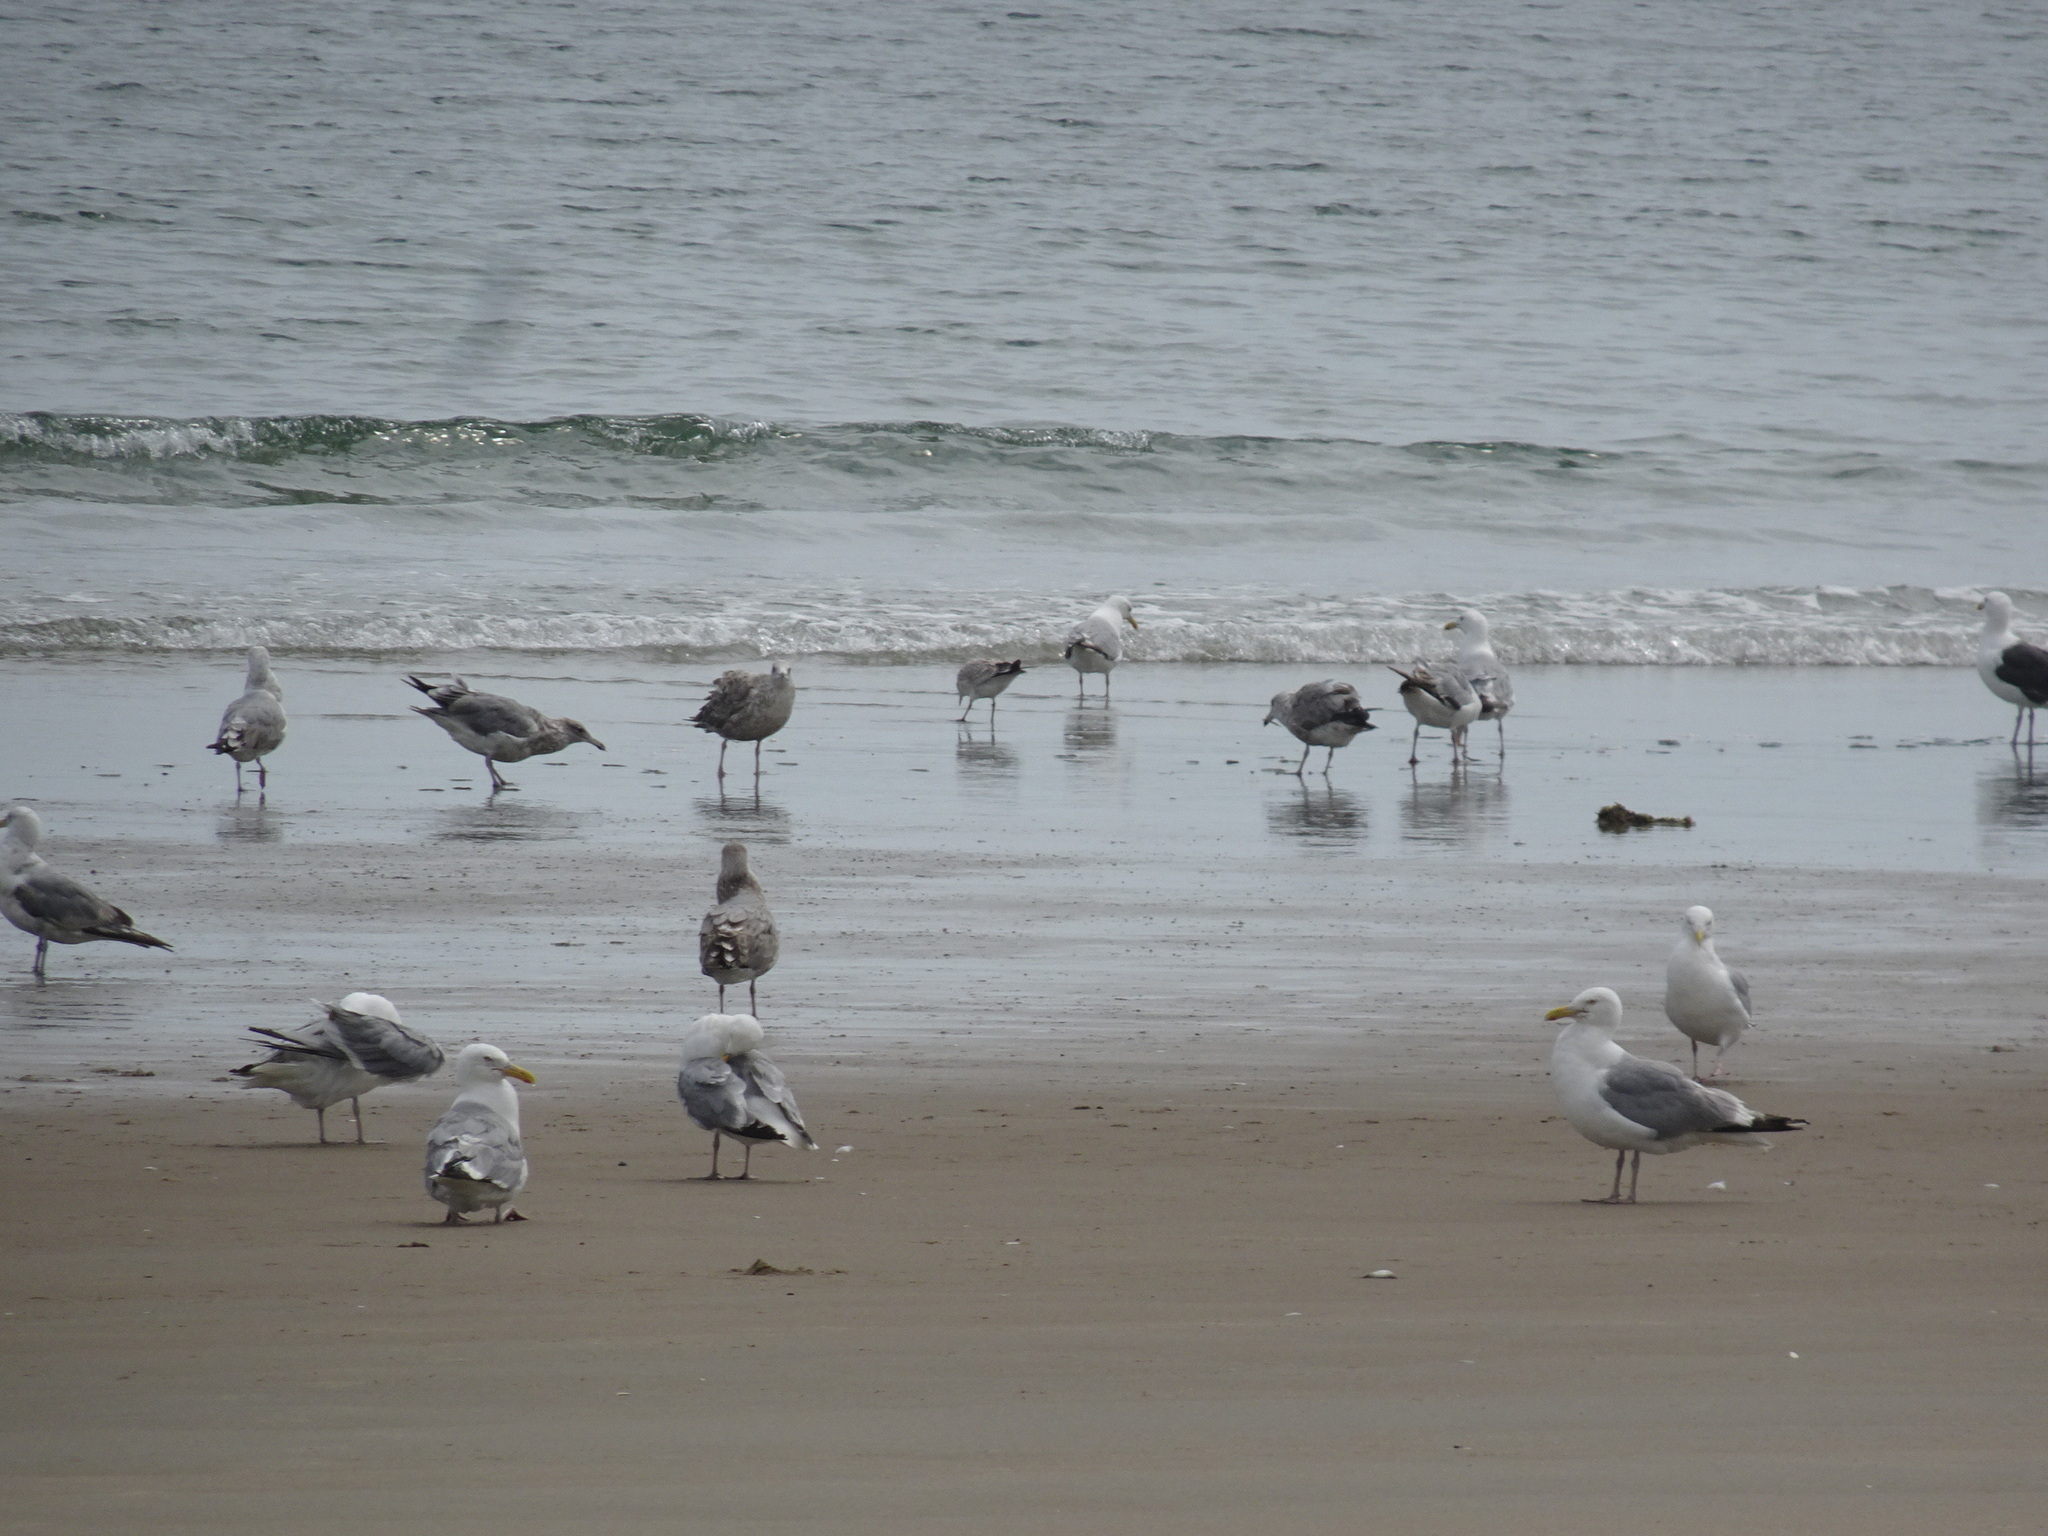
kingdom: Animalia
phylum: Chordata
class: Aves
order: Charadriiformes
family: Laridae
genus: Larus
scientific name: Larus argentatus
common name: Herring gull
